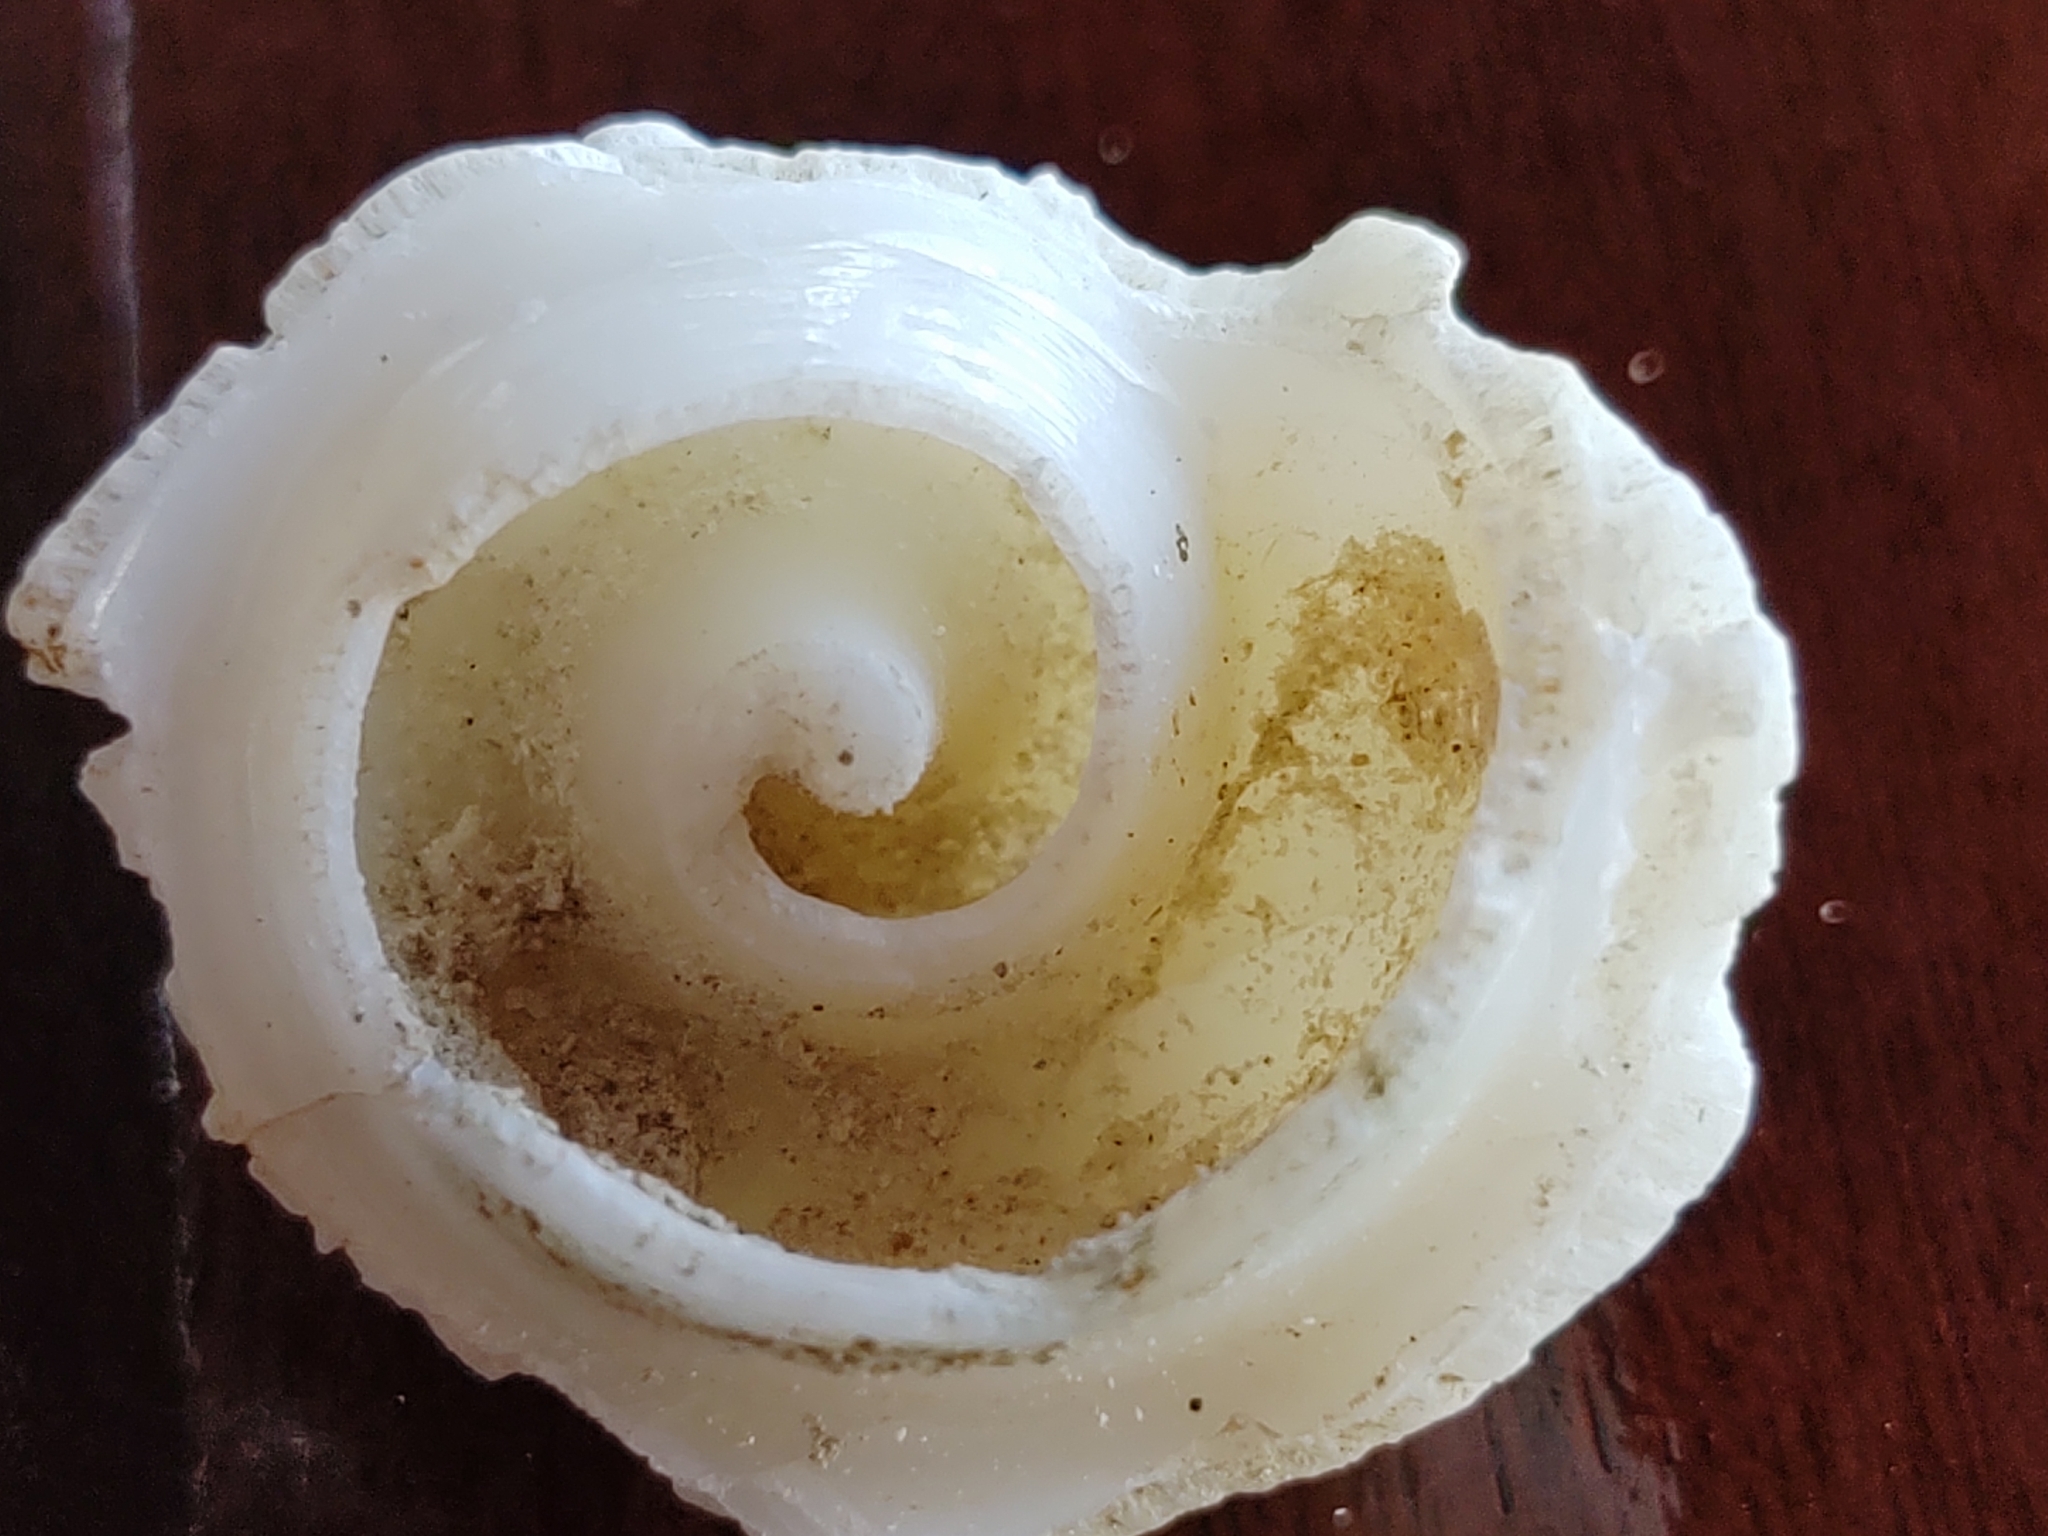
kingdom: Animalia
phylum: Mollusca
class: Gastropoda
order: Littorinimorpha
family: Strombidae
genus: Aliger
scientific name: Aliger gigas
